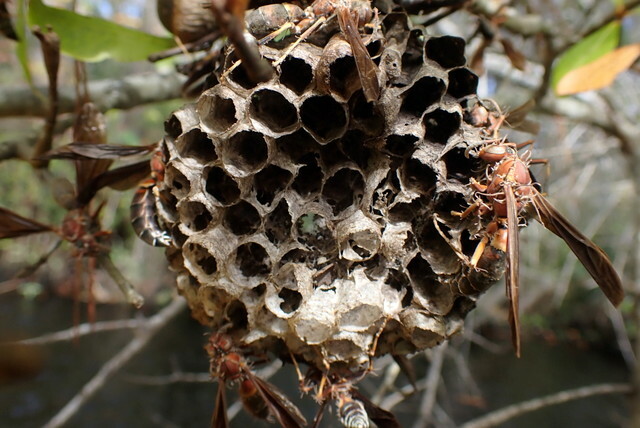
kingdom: Animalia
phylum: Arthropoda
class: Insecta
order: Hymenoptera
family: Eumenidae
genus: Polistes
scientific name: Polistes annularis
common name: Ringed paper wasp
